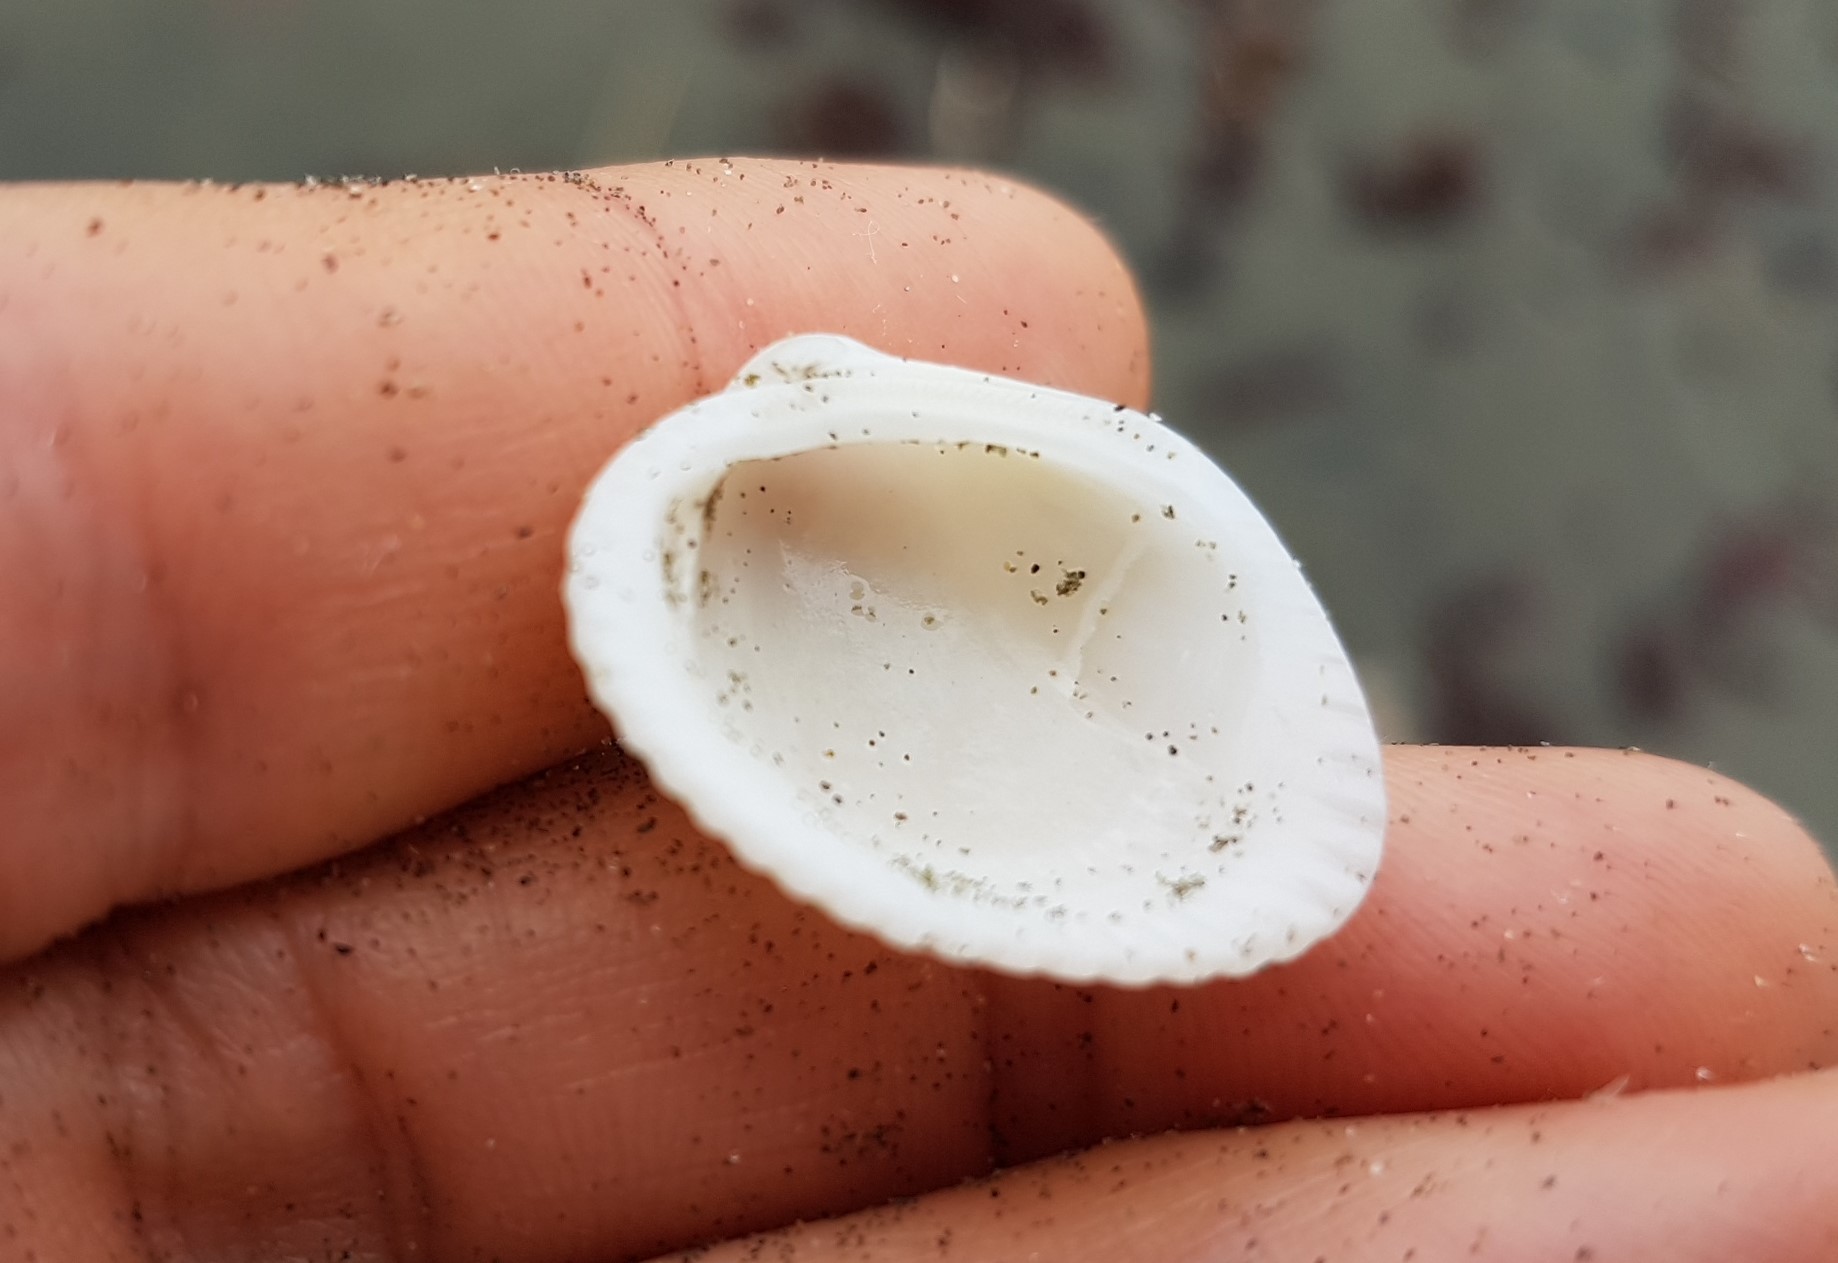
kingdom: Animalia
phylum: Mollusca
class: Bivalvia
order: Arcida
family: Arcidae
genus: Lunarca
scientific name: Lunarca ovalis
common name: Blood ark
